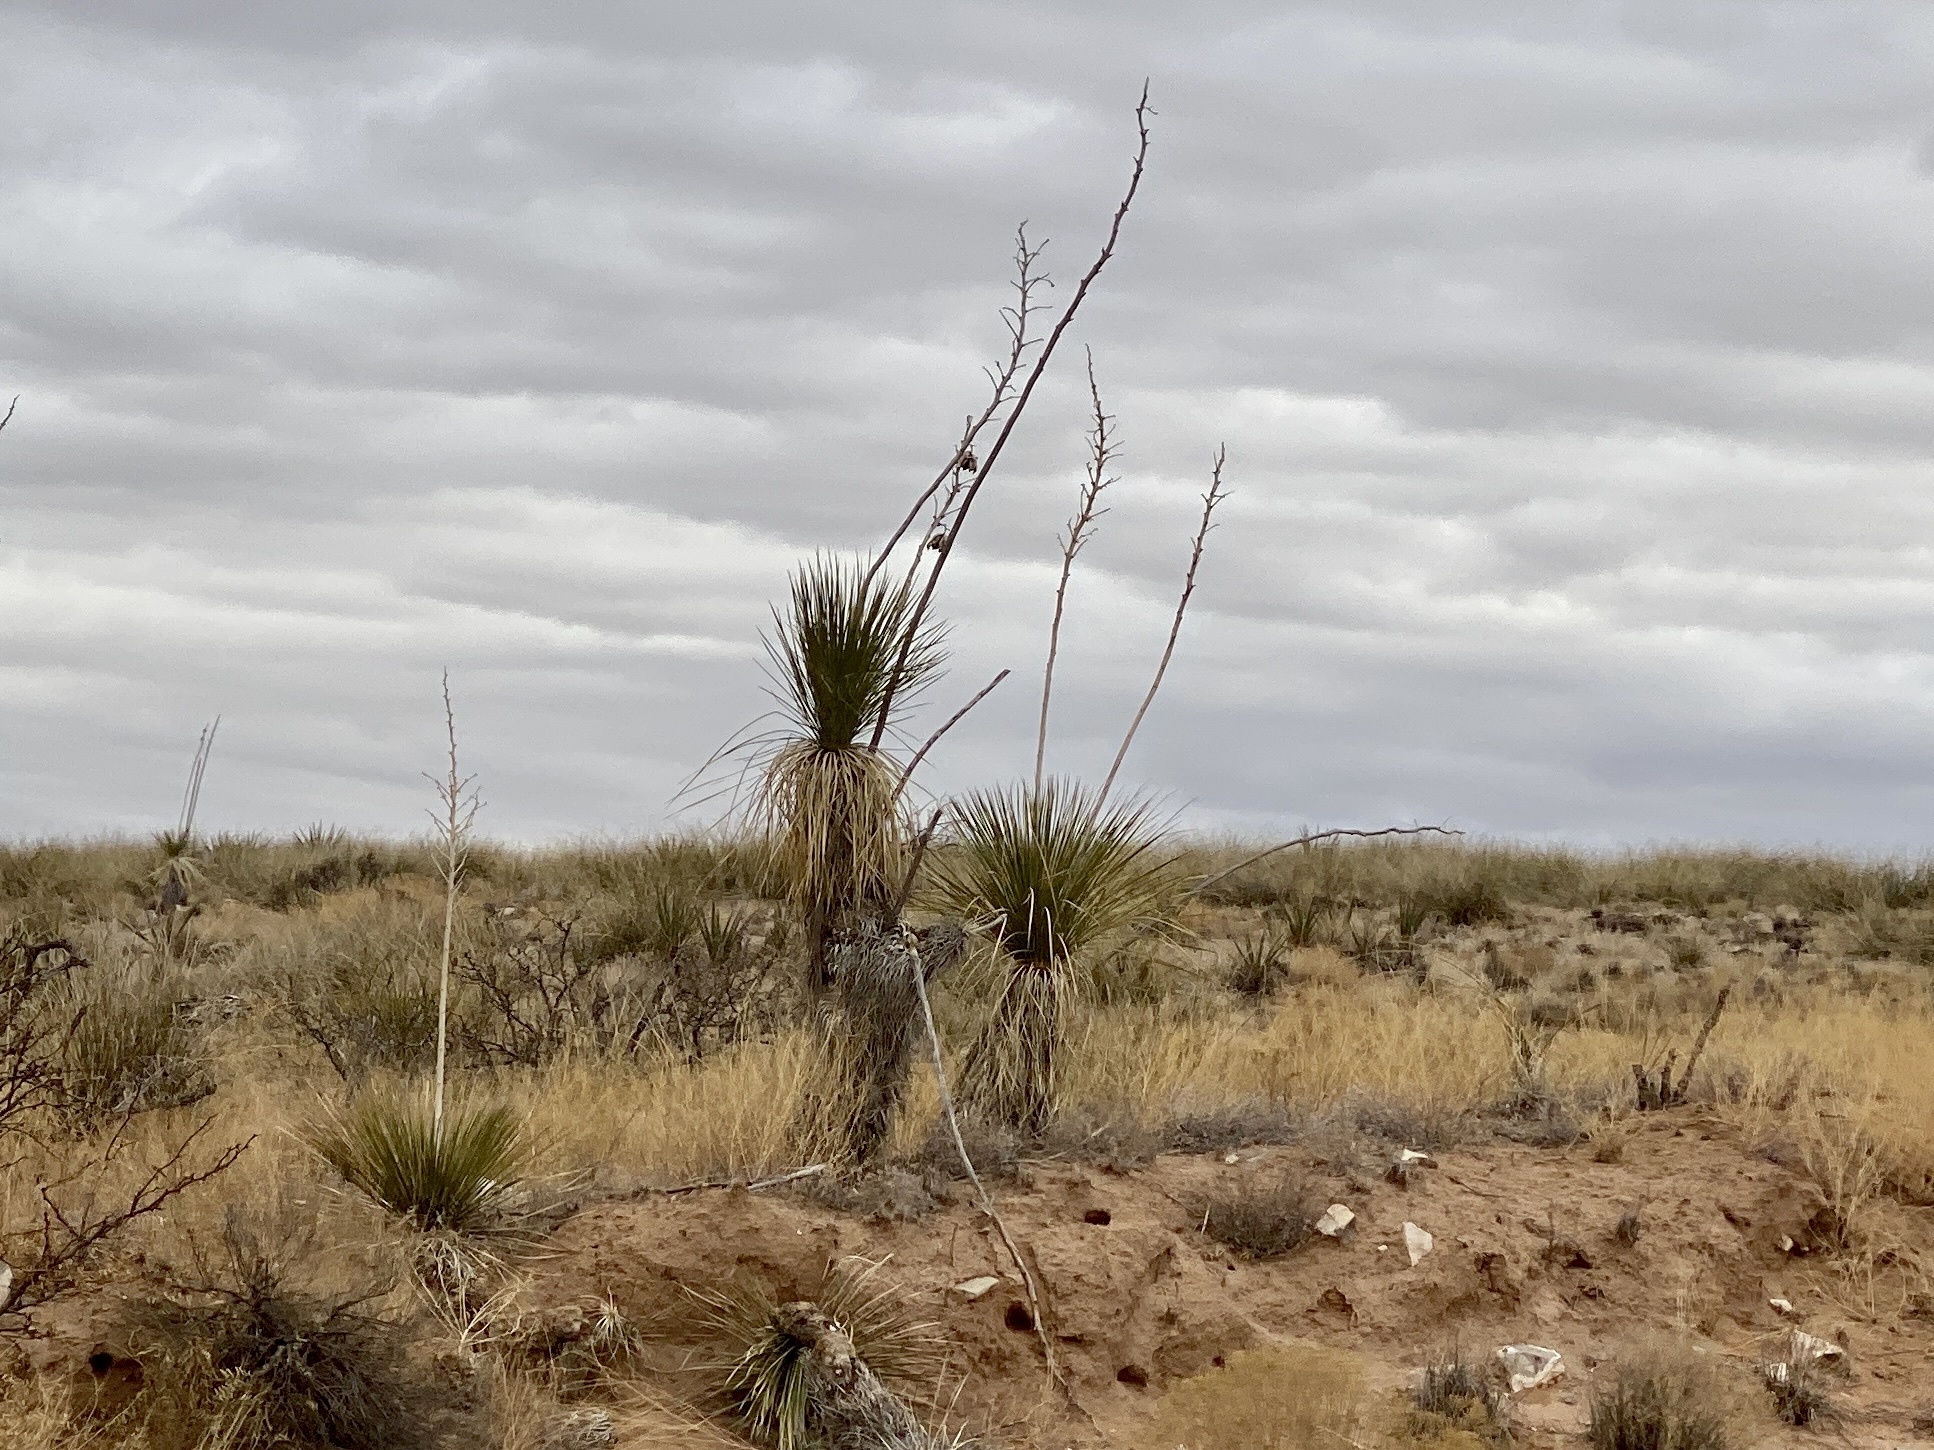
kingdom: Plantae
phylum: Tracheophyta
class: Liliopsida
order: Asparagales
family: Asparagaceae
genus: Yucca
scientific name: Yucca elata
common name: Palmella
